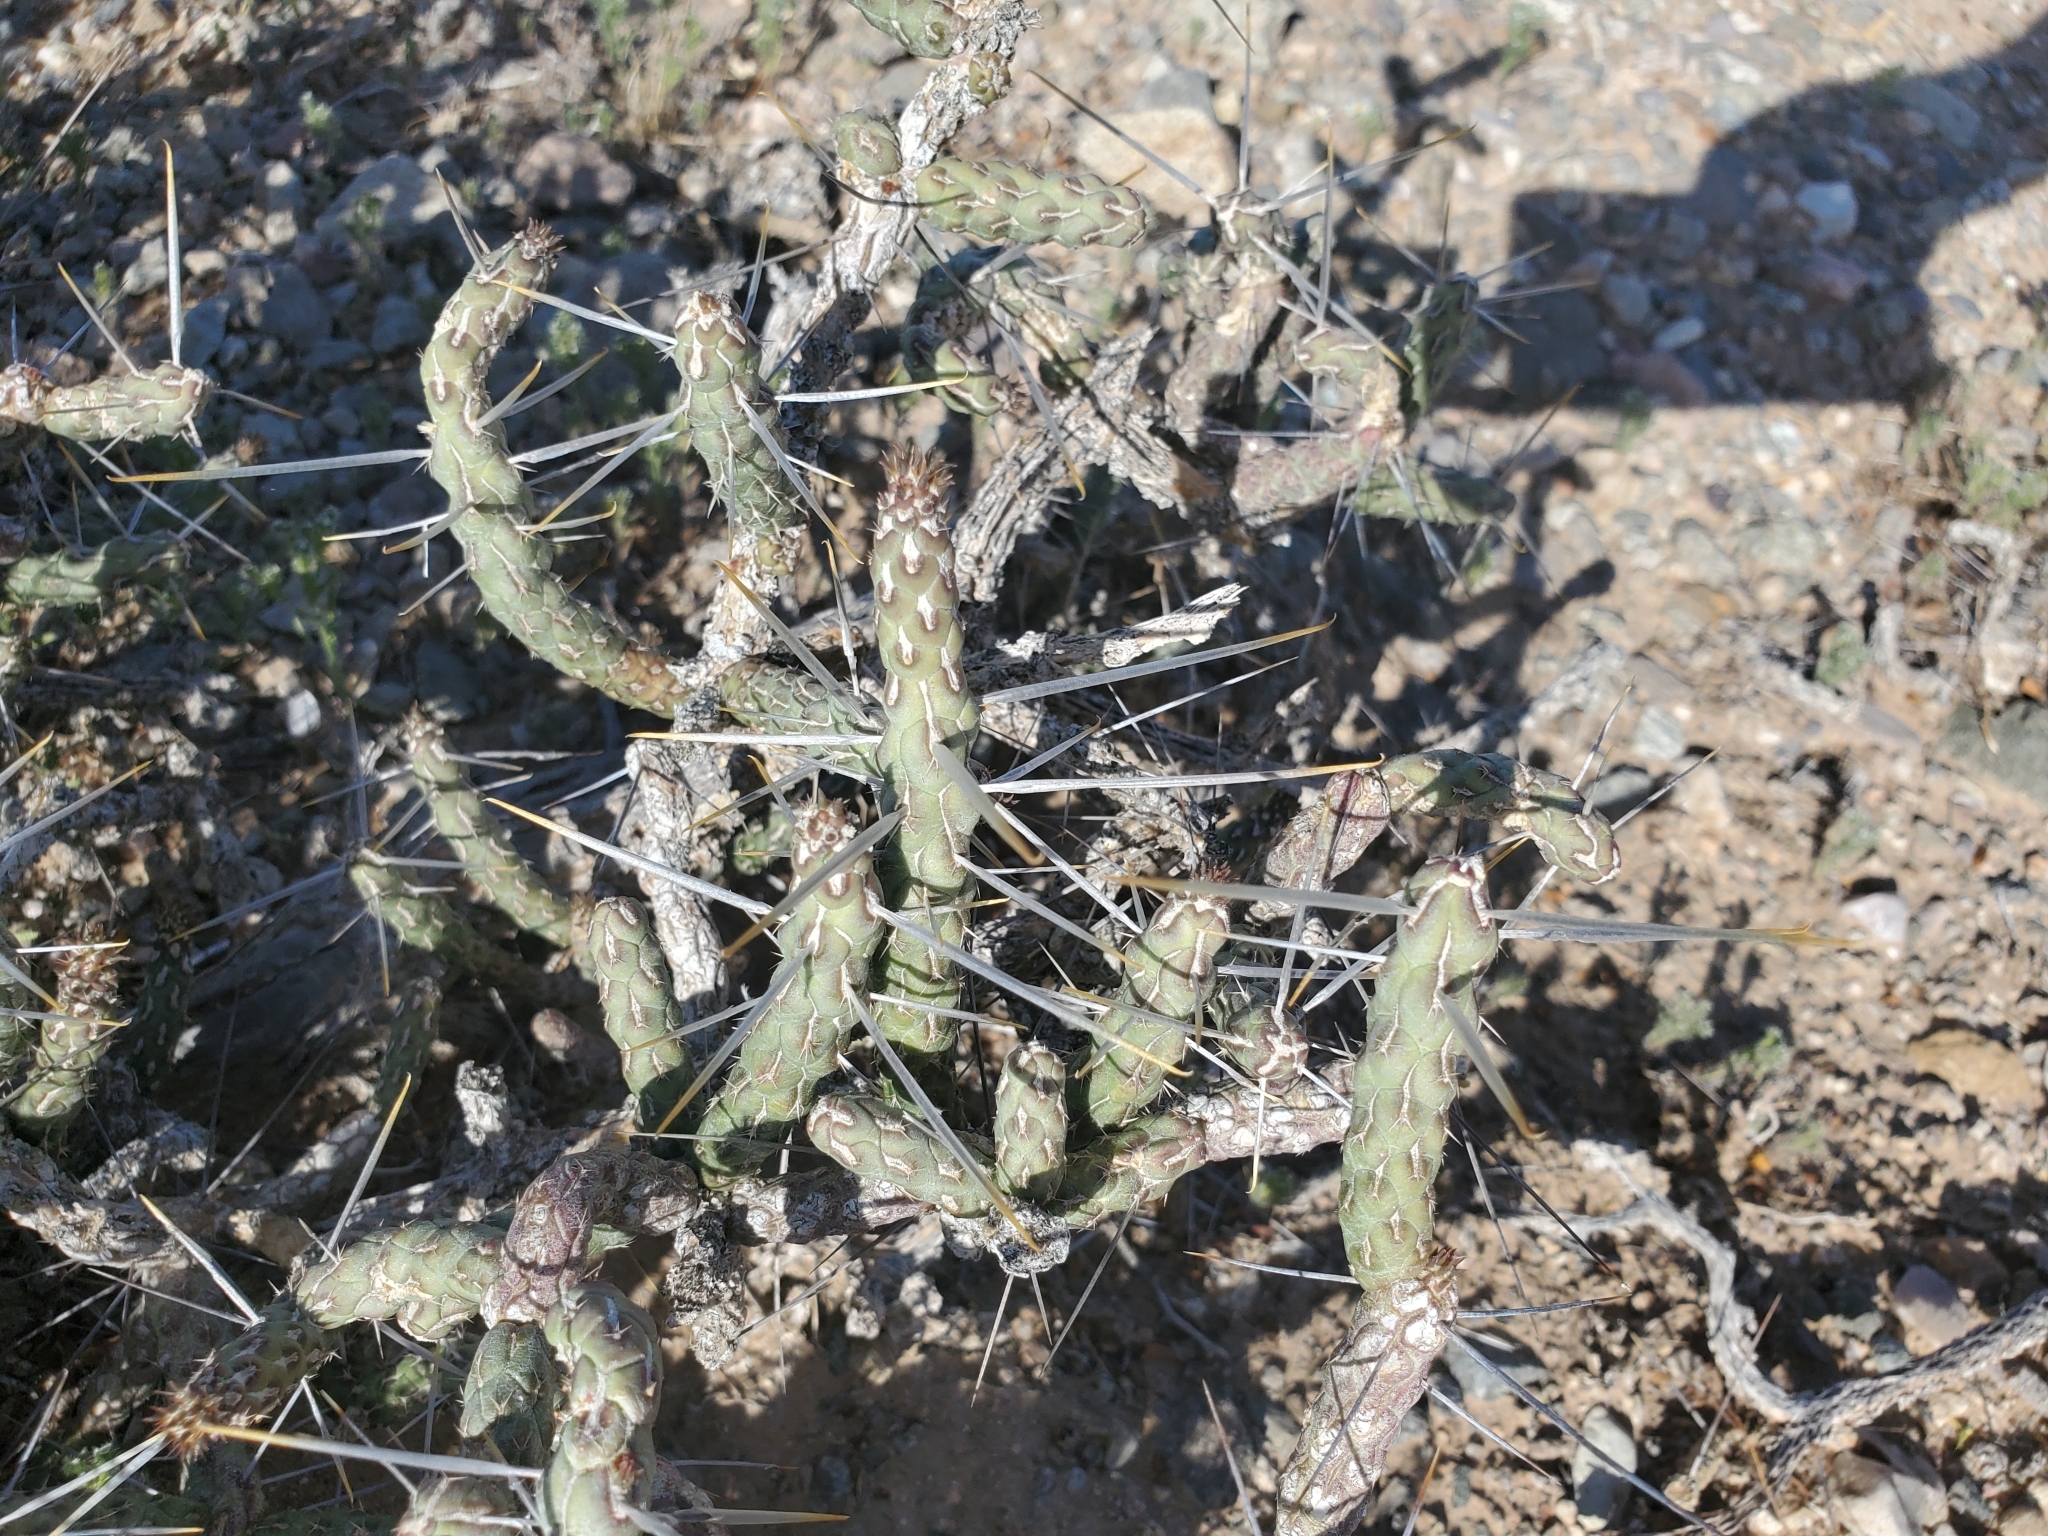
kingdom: Plantae
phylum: Tracheophyta
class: Magnoliopsida
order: Caryophyllales
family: Cactaceae
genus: Cylindropuntia
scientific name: Cylindropuntia ramosissima
